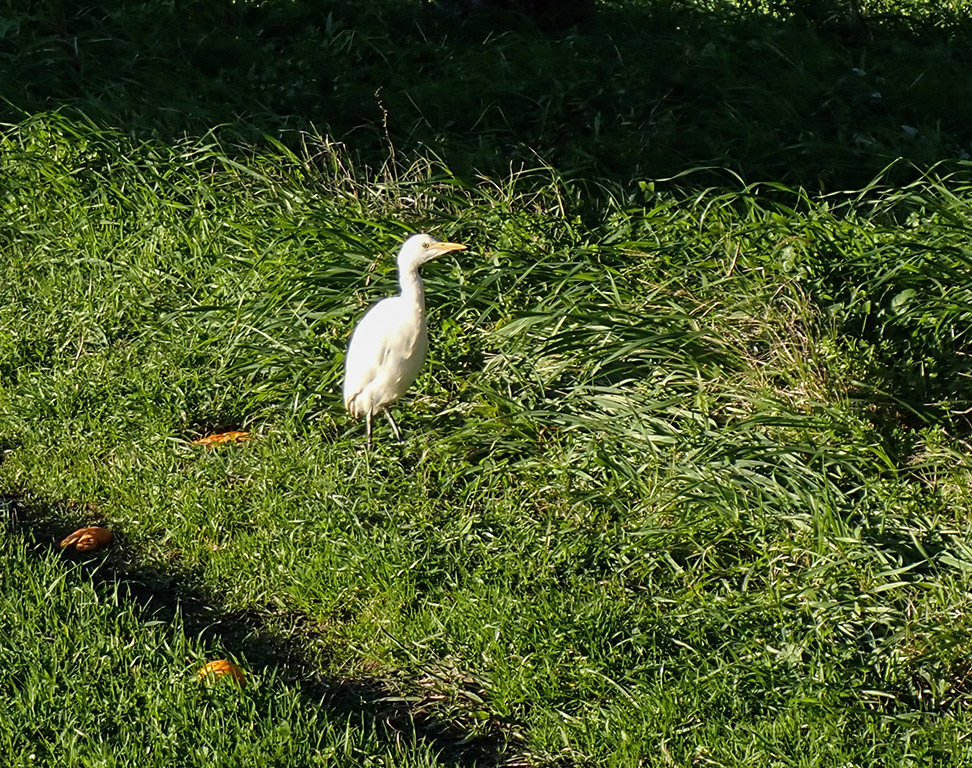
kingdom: Animalia
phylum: Chordata
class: Aves
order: Pelecaniformes
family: Ardeidae
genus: Bubulcus
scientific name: Bubulcus ibis
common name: Cattle egret
